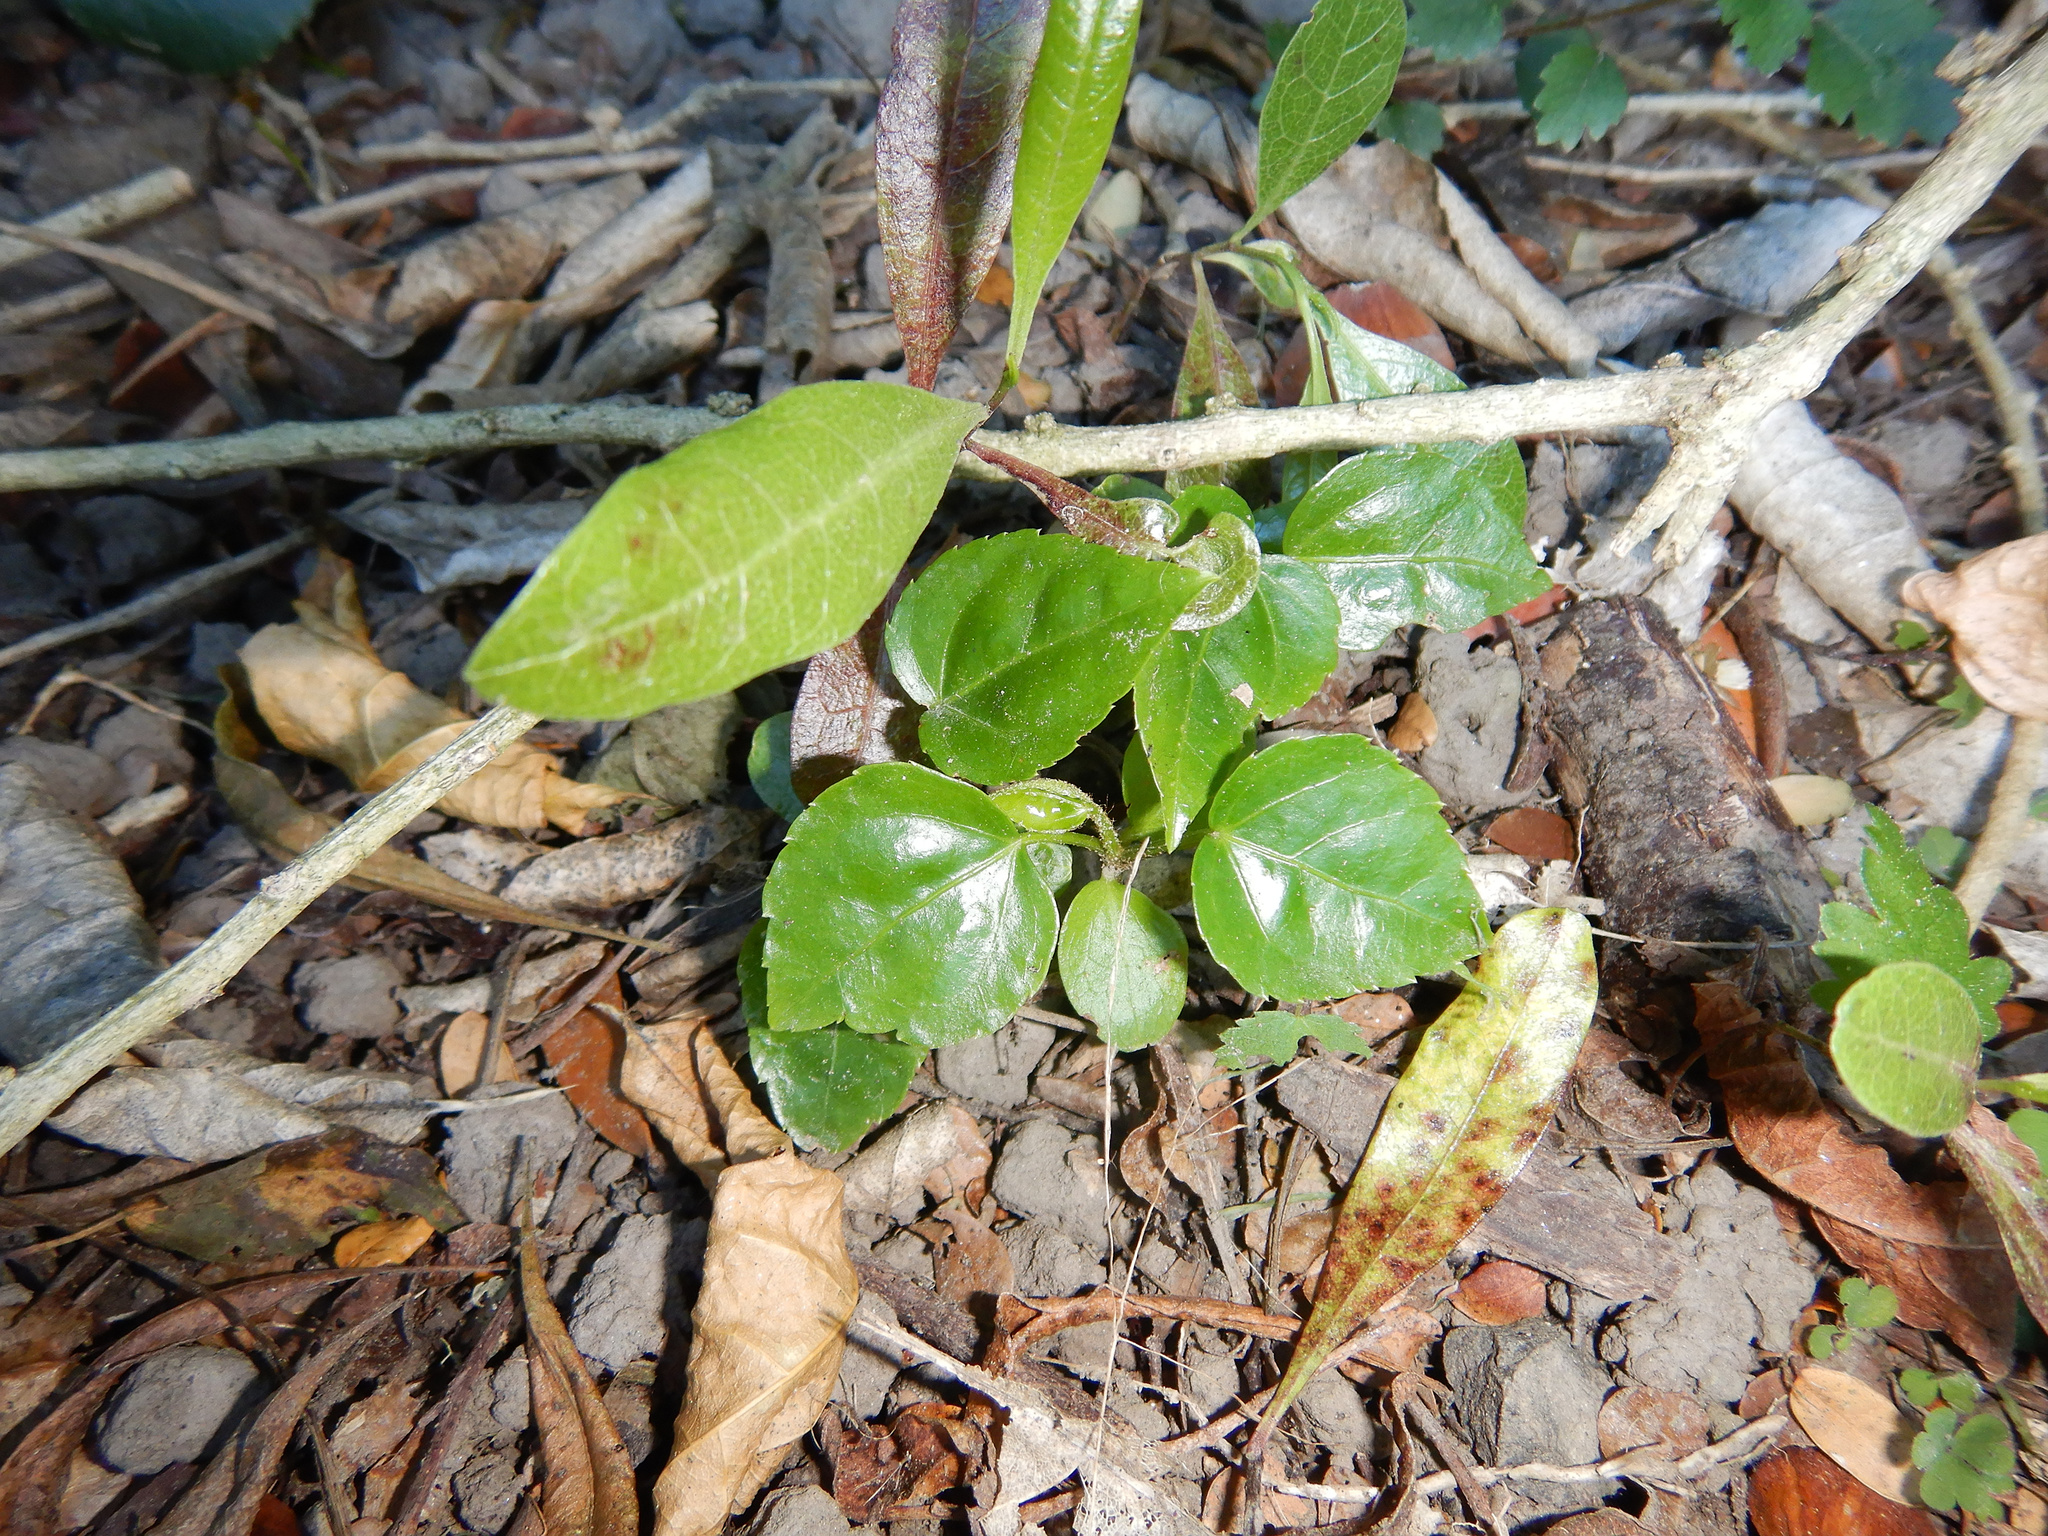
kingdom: Plantae
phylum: Tracheophyta
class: Magnoliopsida
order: Apiales
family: Araliaceae
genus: Fatsia
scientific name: Fatsia japonica
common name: Fatsia
